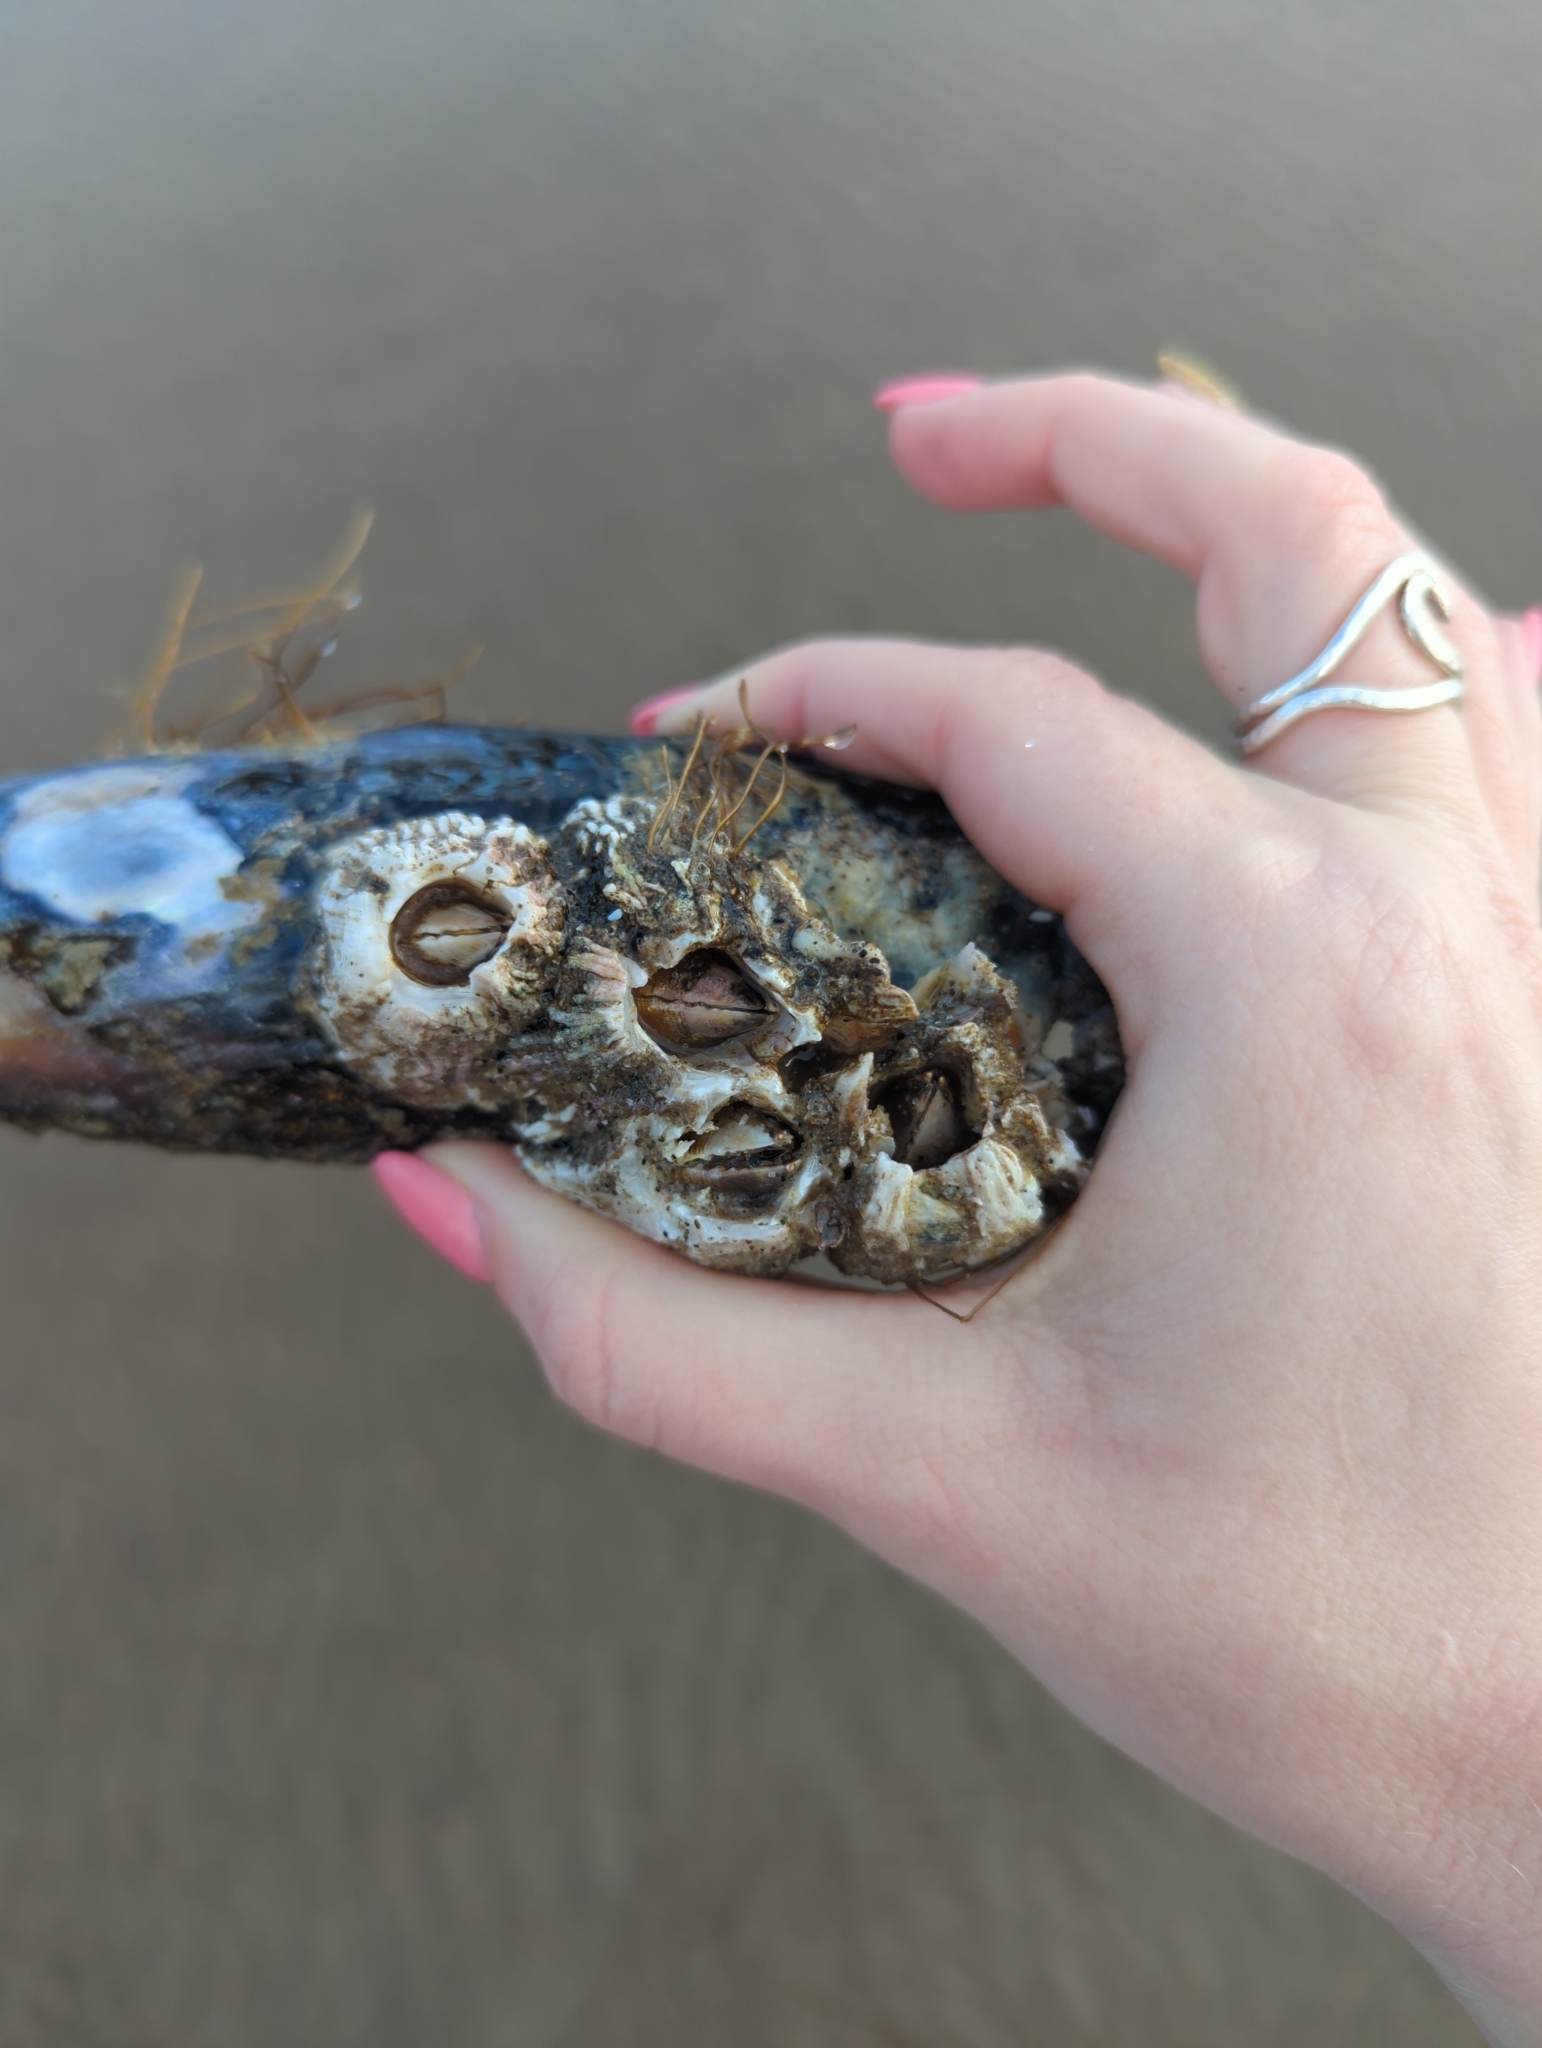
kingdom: Animalia
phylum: Arthropoda
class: Maxillopoda
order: Sessilia
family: Archaeobalanidae
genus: Semibalanus
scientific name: Semibalanus cariosus
